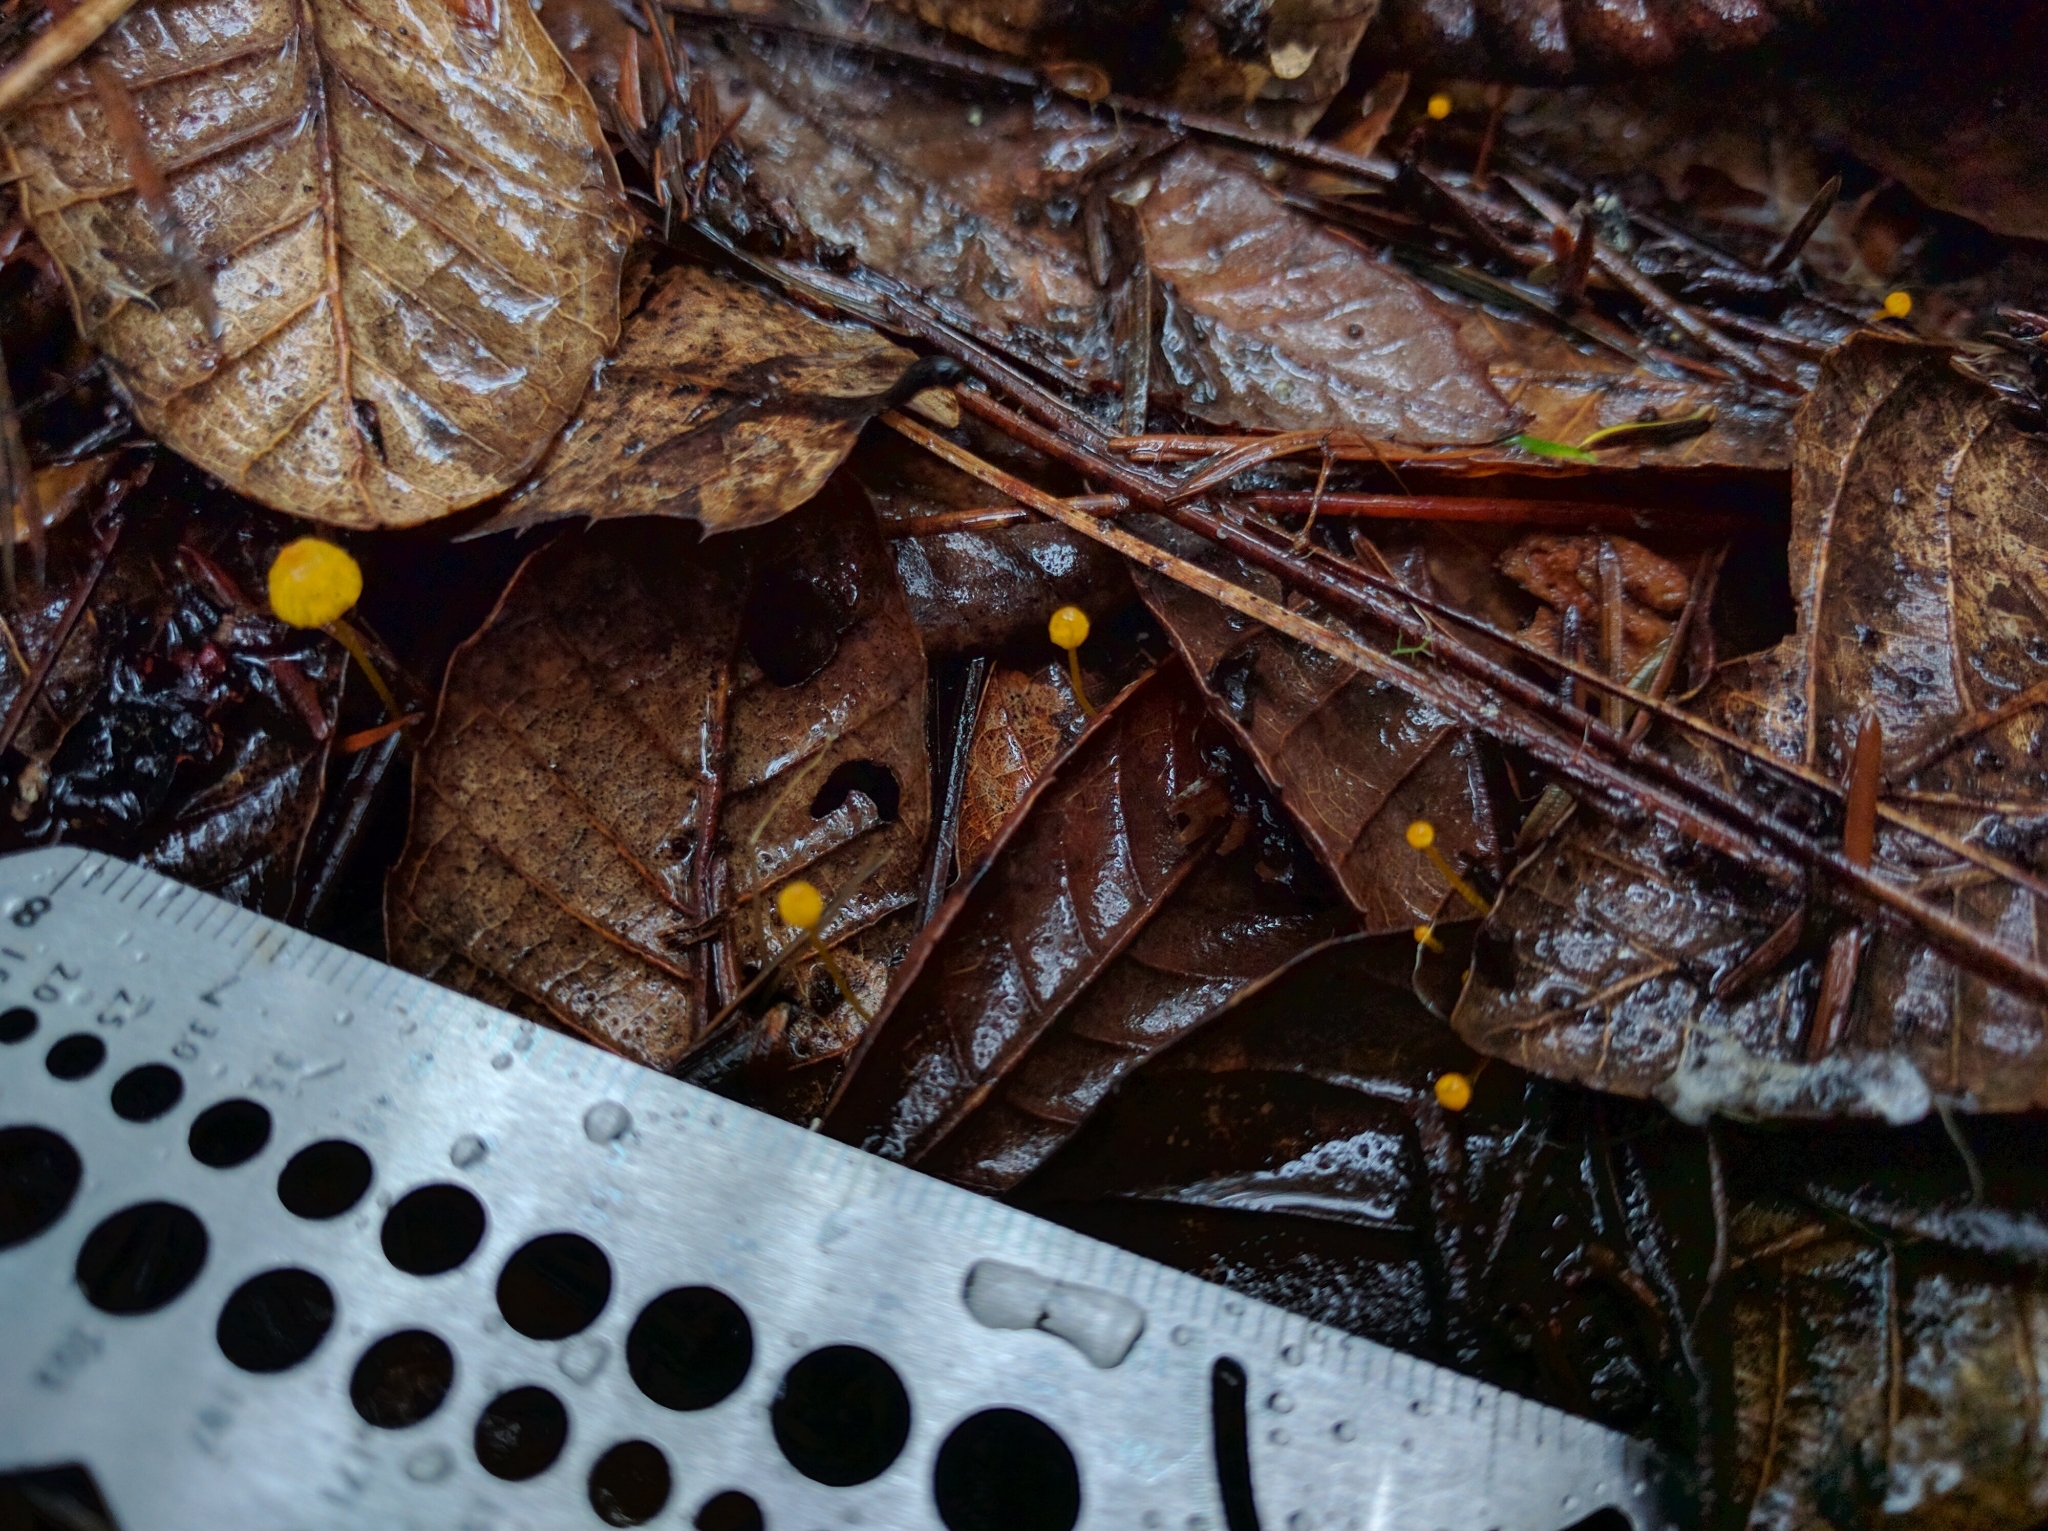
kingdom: Fungi
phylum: Basidiomycota
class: Agaricomycetes
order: Agaricales
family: Mycenaceae
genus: Mycena
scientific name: Mycena oregonensis
